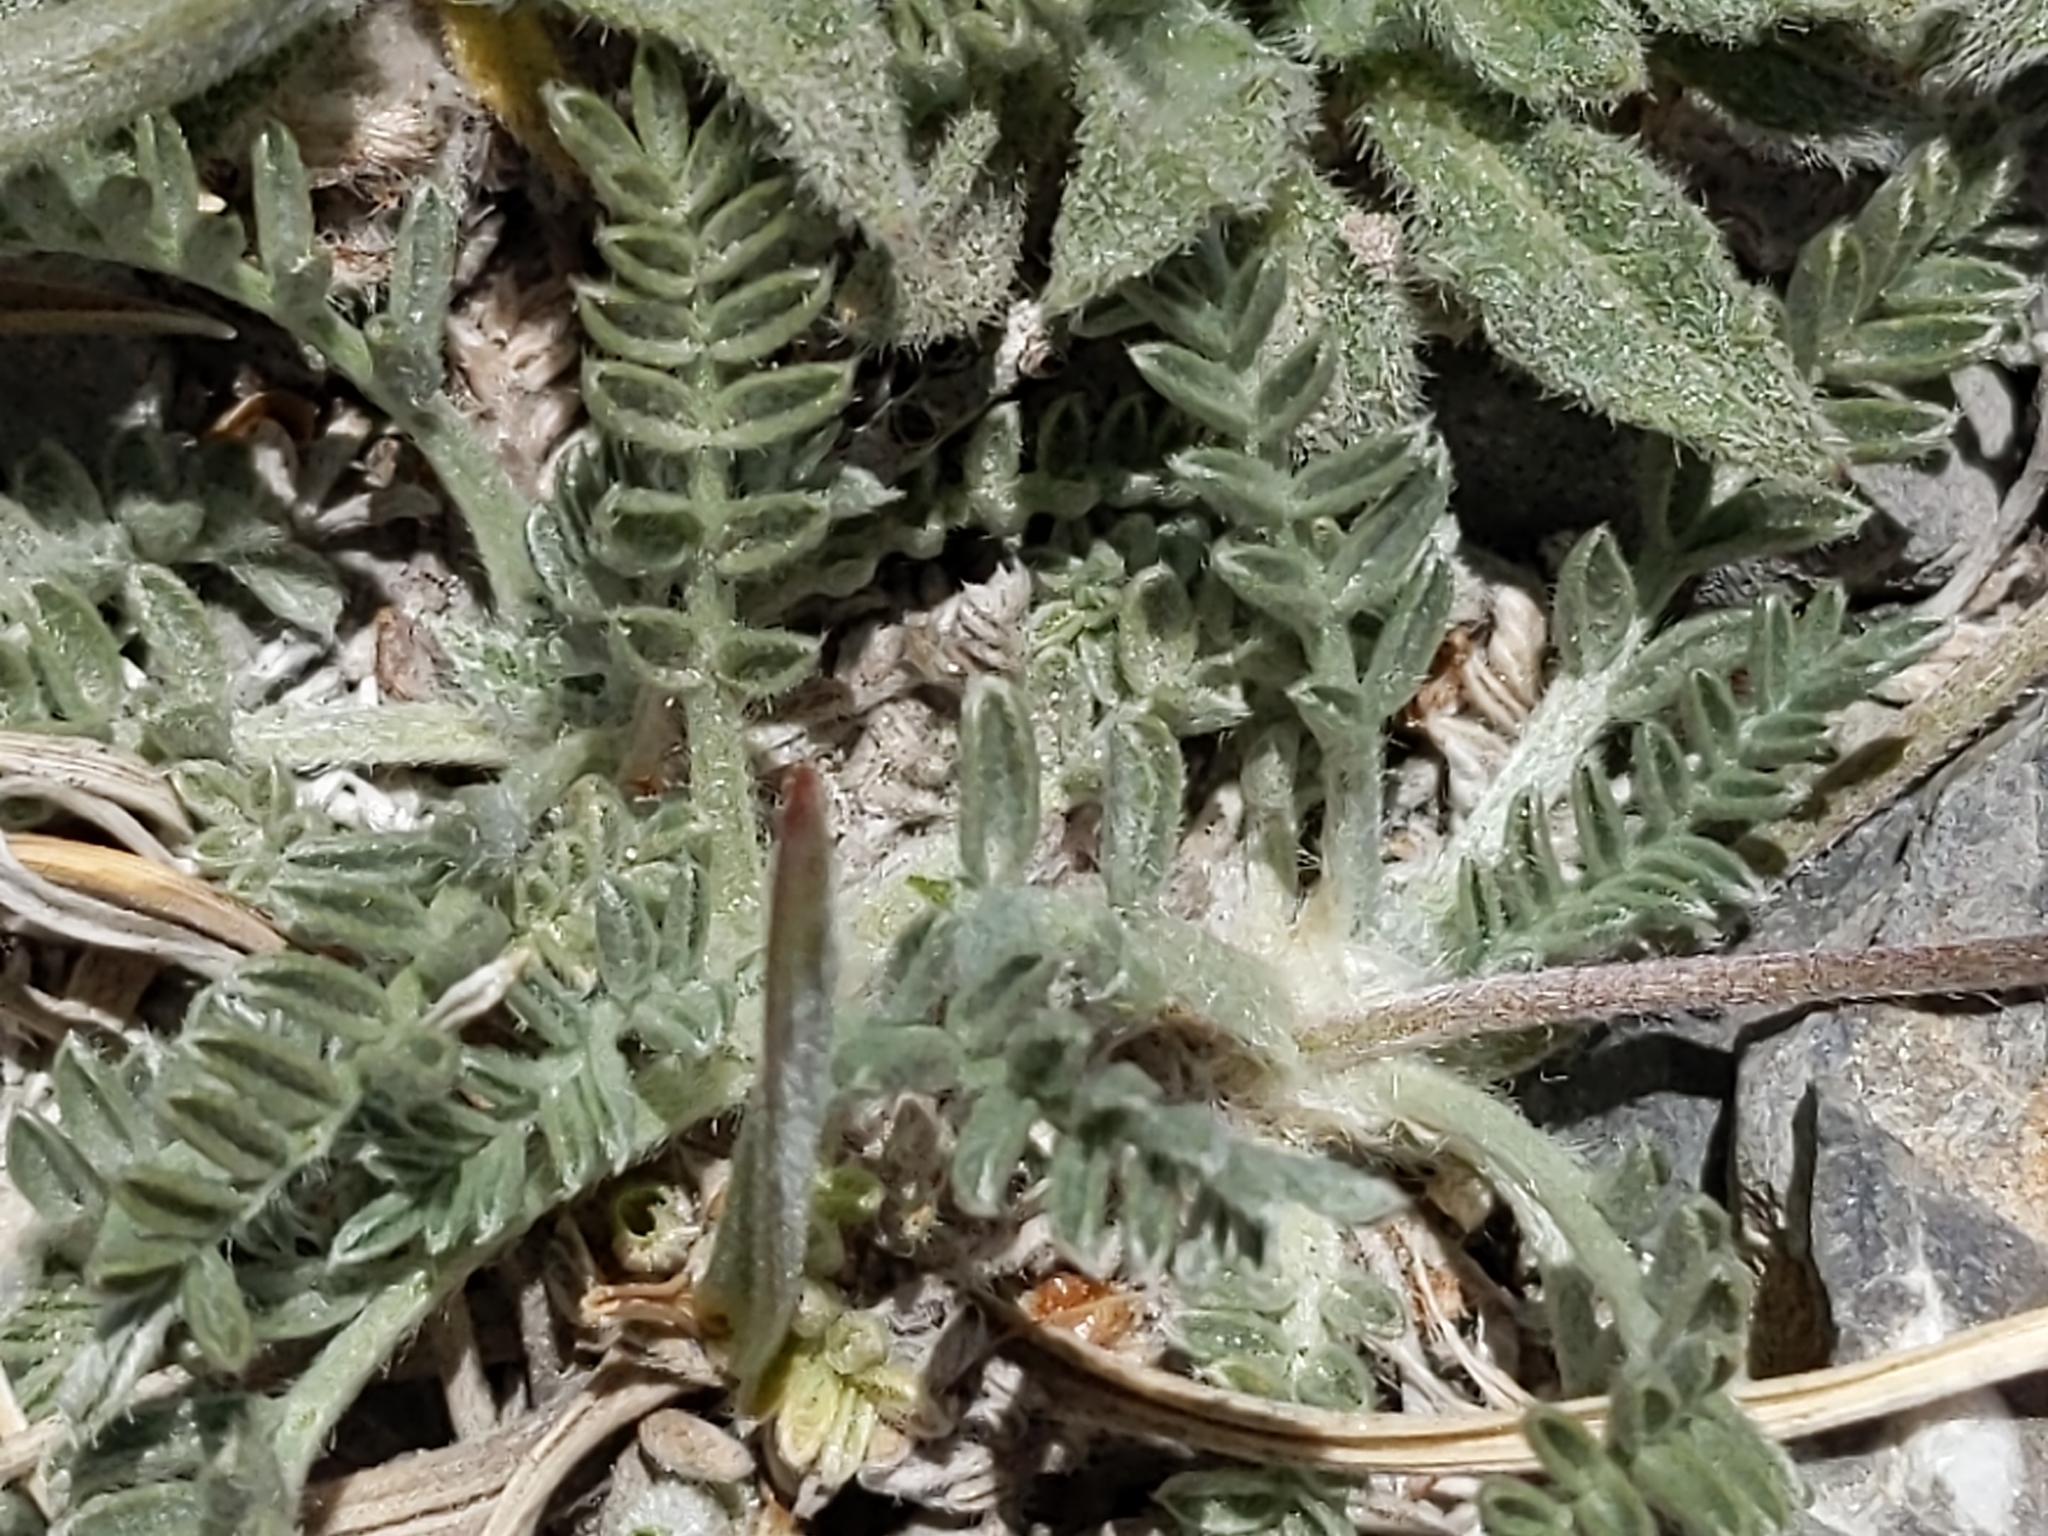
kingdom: Plantae
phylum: Tracheophyta
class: Magnoliopsida
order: Fabales
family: Fabaceae
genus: Oxytropis
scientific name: Oxytropis oreophila
